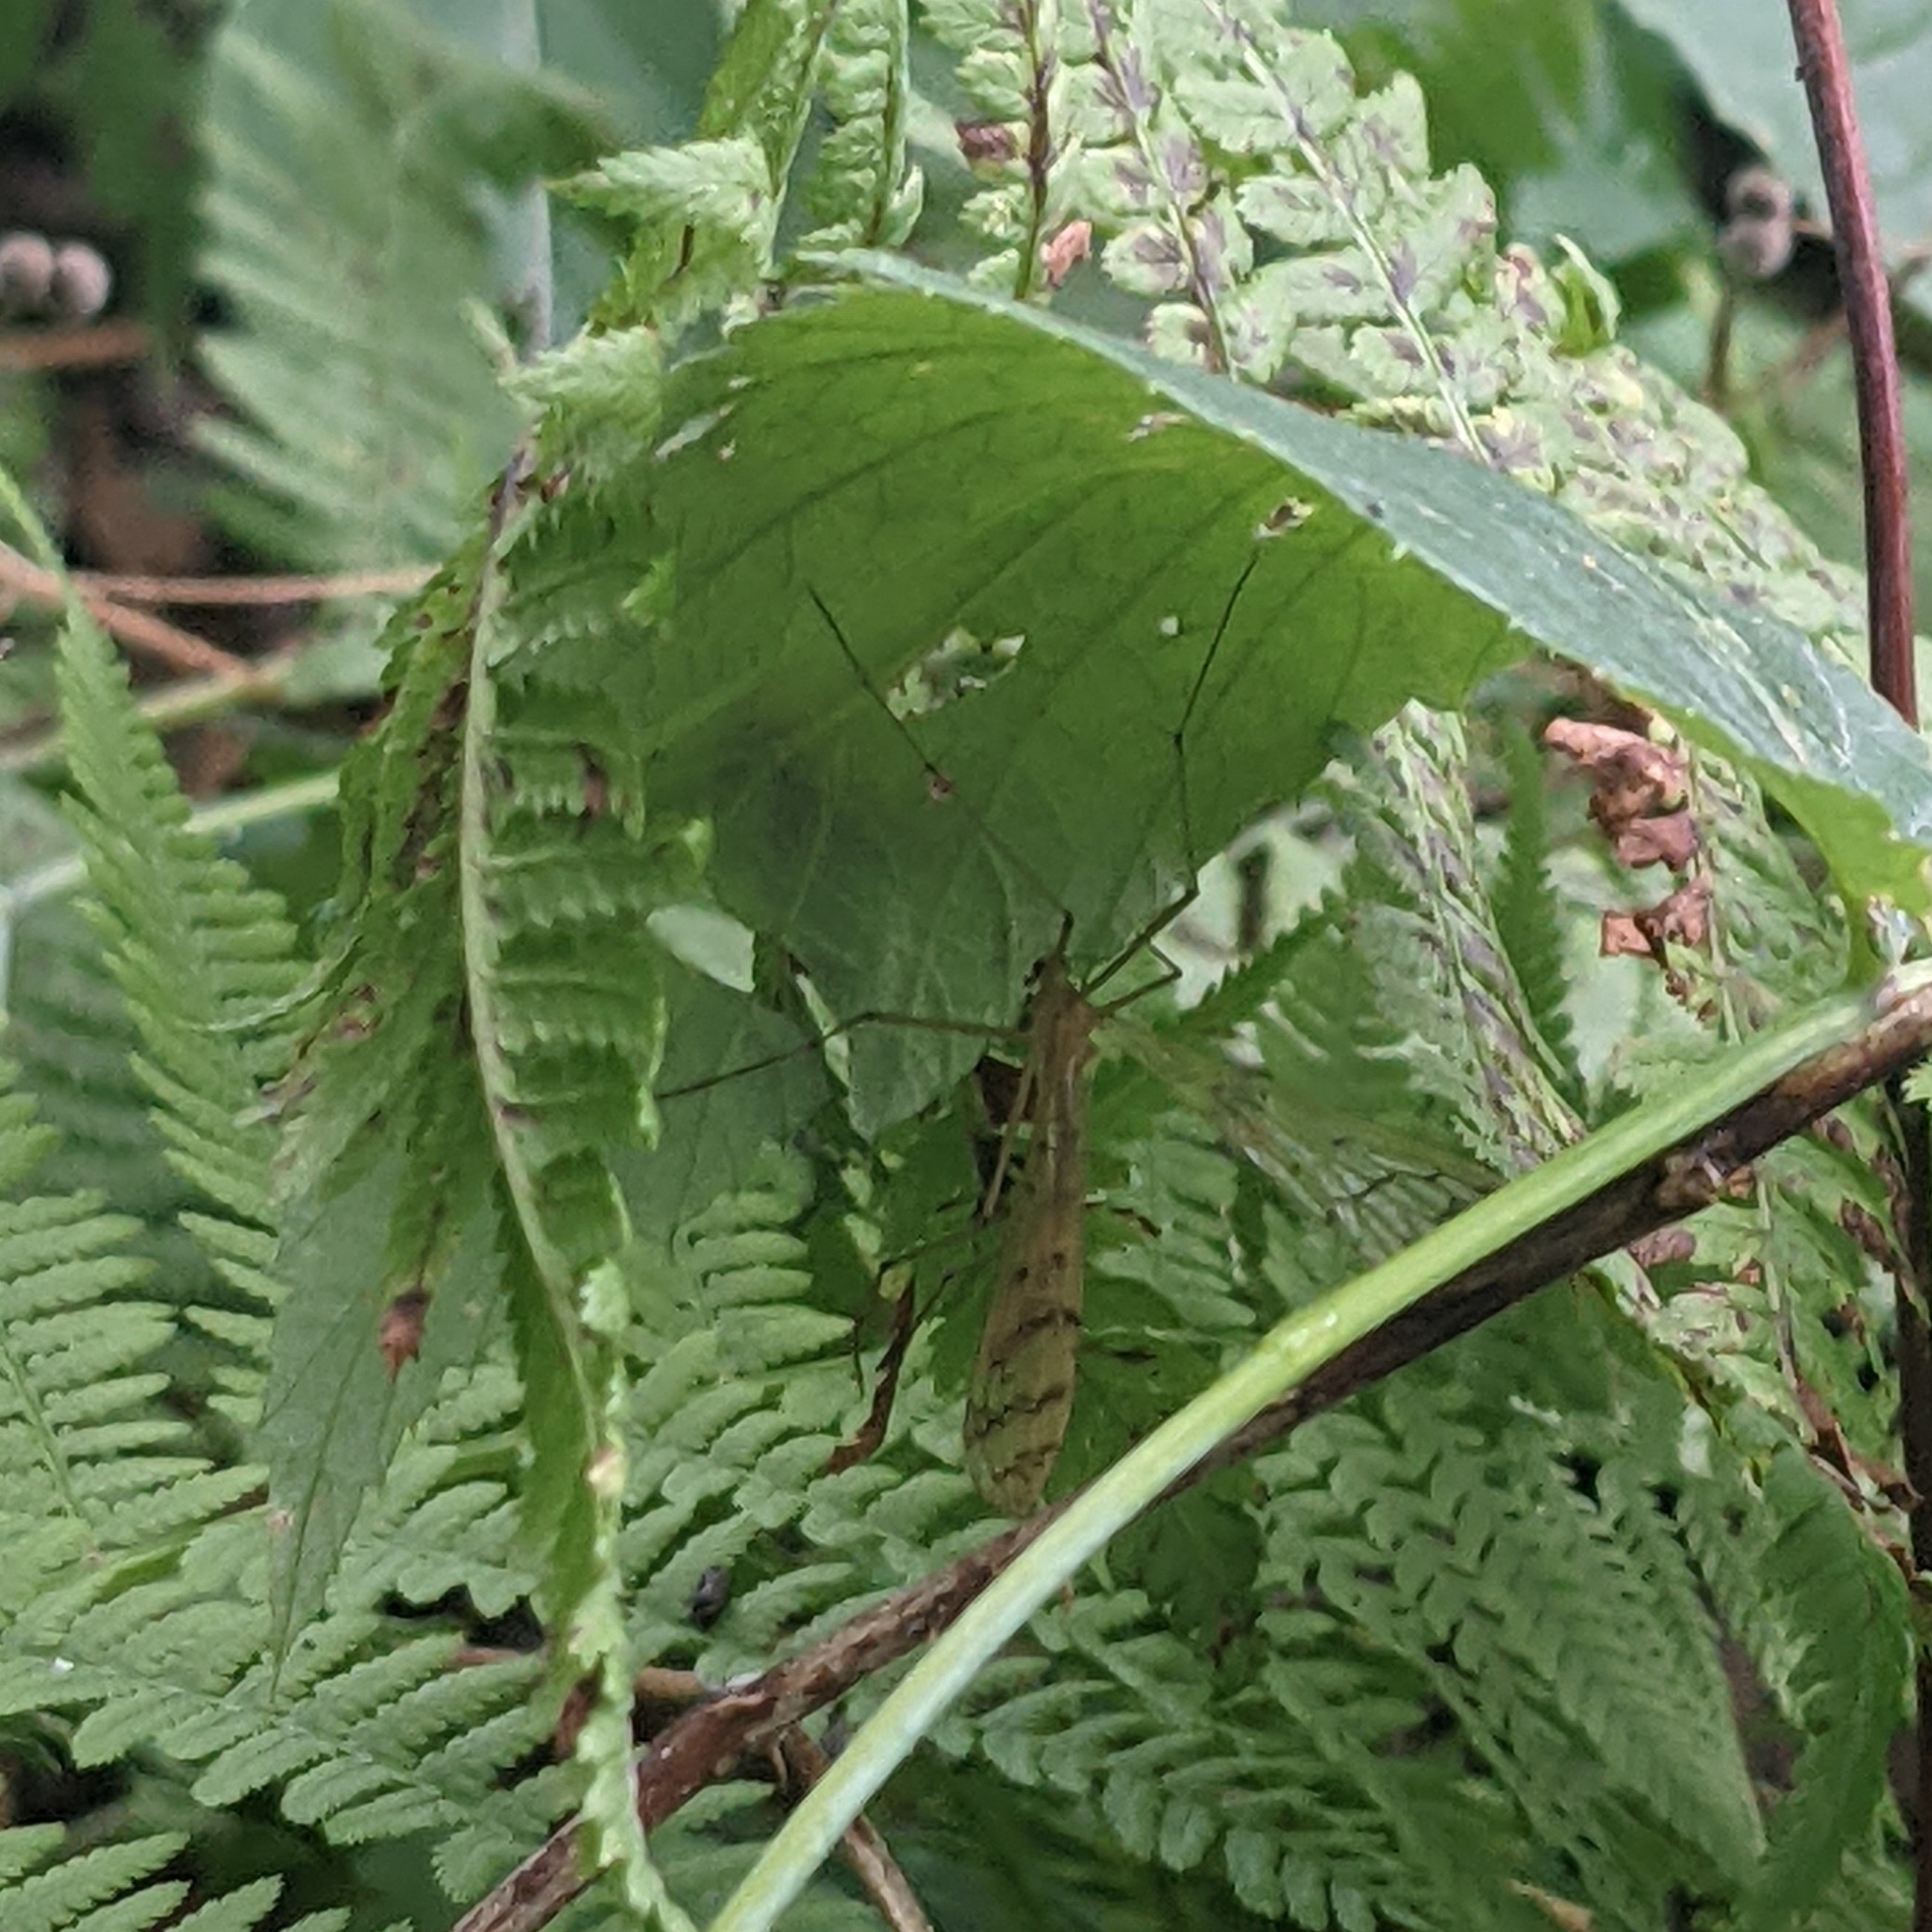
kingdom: Animalia
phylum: Arthropoda
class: Insecta
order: Mecoptera
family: Bittacidae
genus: Bittacus
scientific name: Bittacus strigosus
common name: Thin hangingfly
